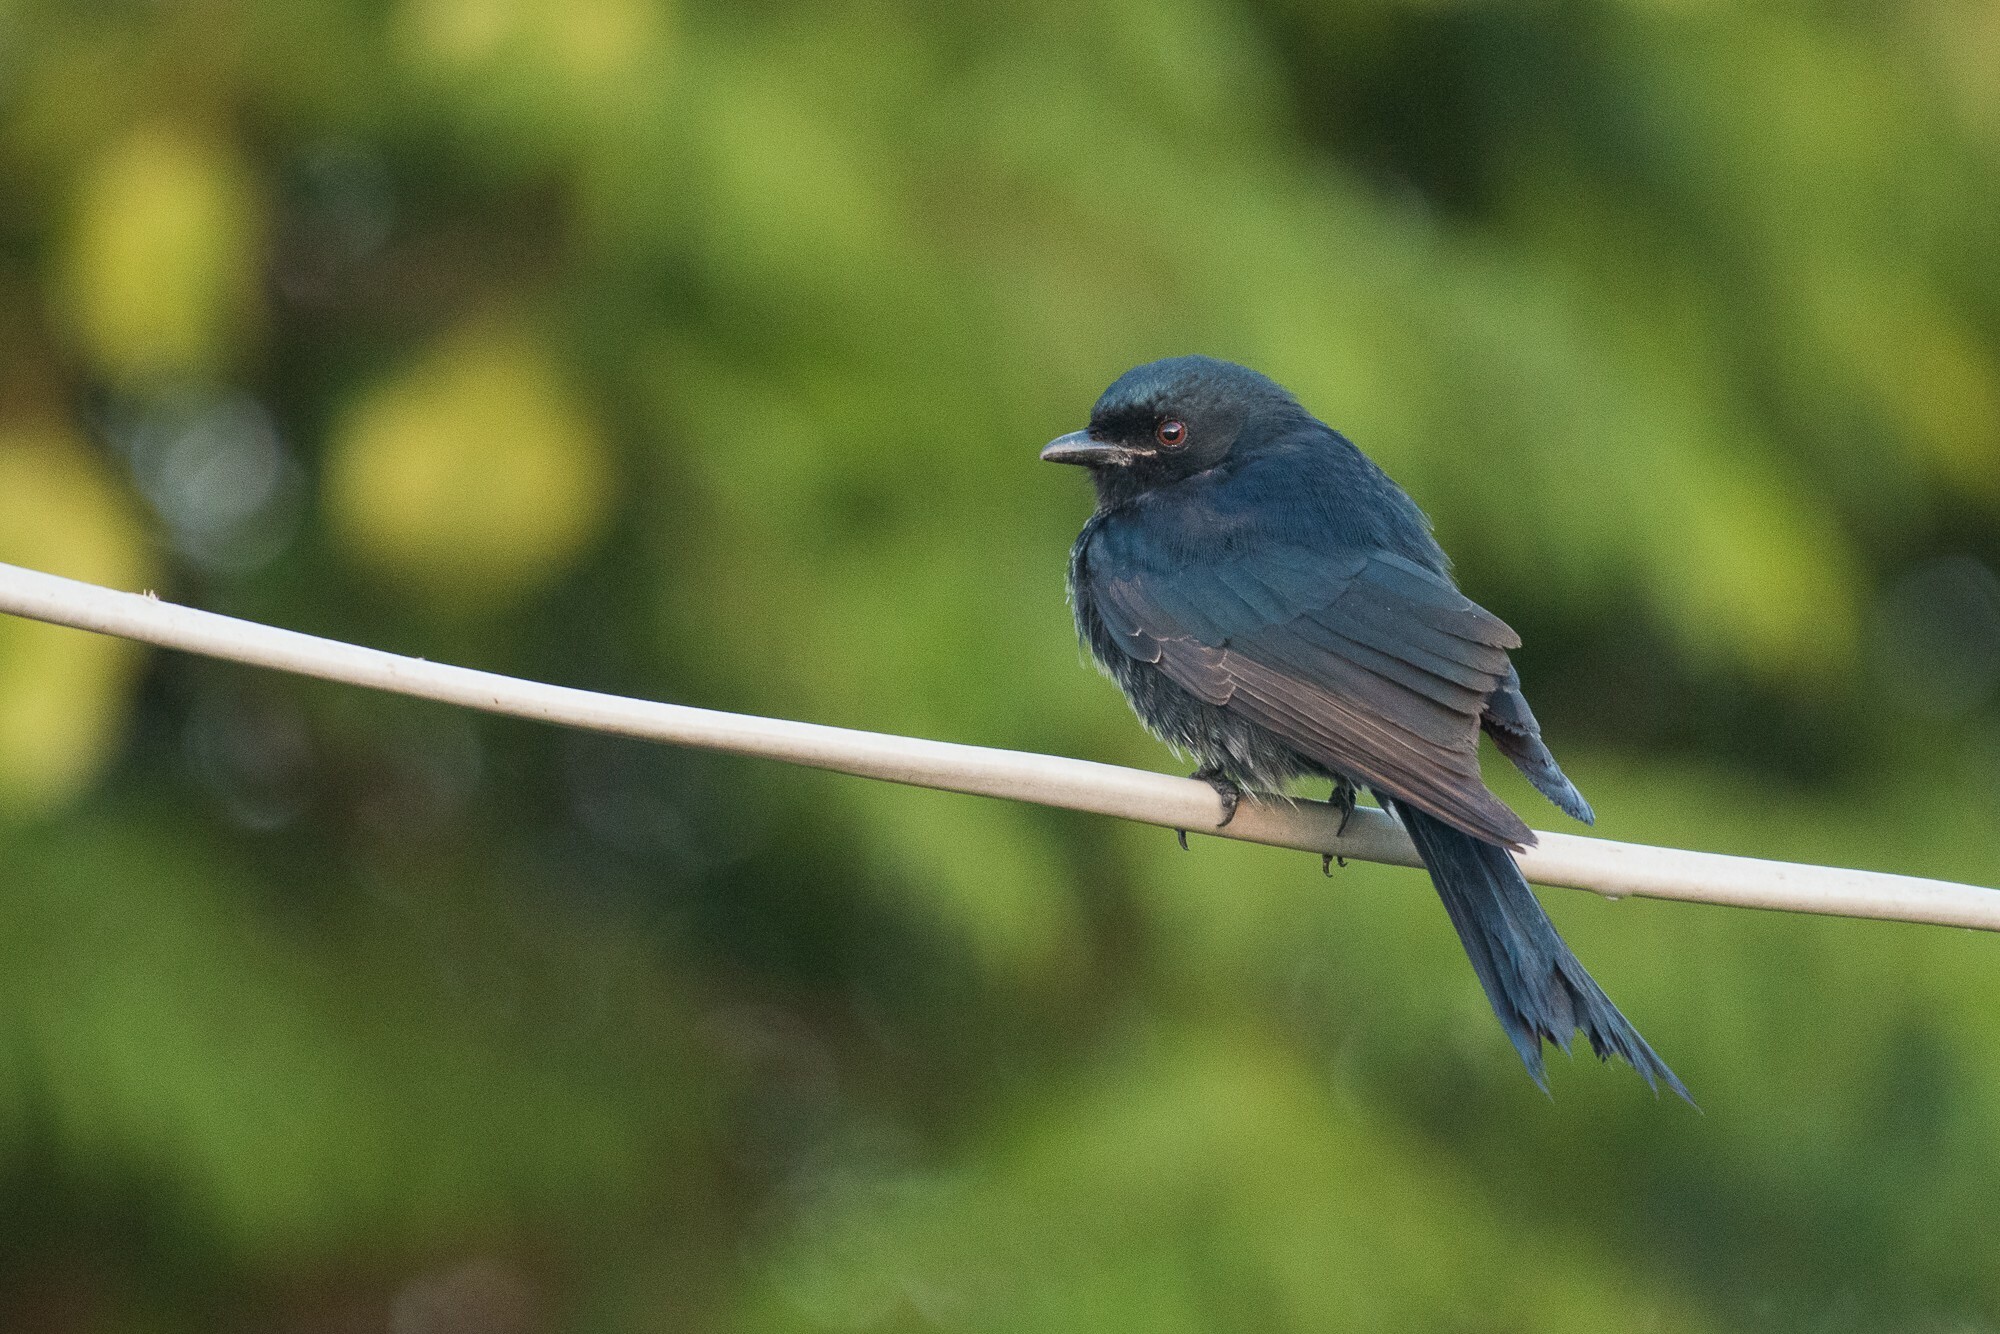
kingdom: Animalia
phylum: Chordata
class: Aves
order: Passeriformes
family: Dicruridae
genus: Dicrurus
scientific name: Dicrurus adsimilis
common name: Fork-tailed drongo
